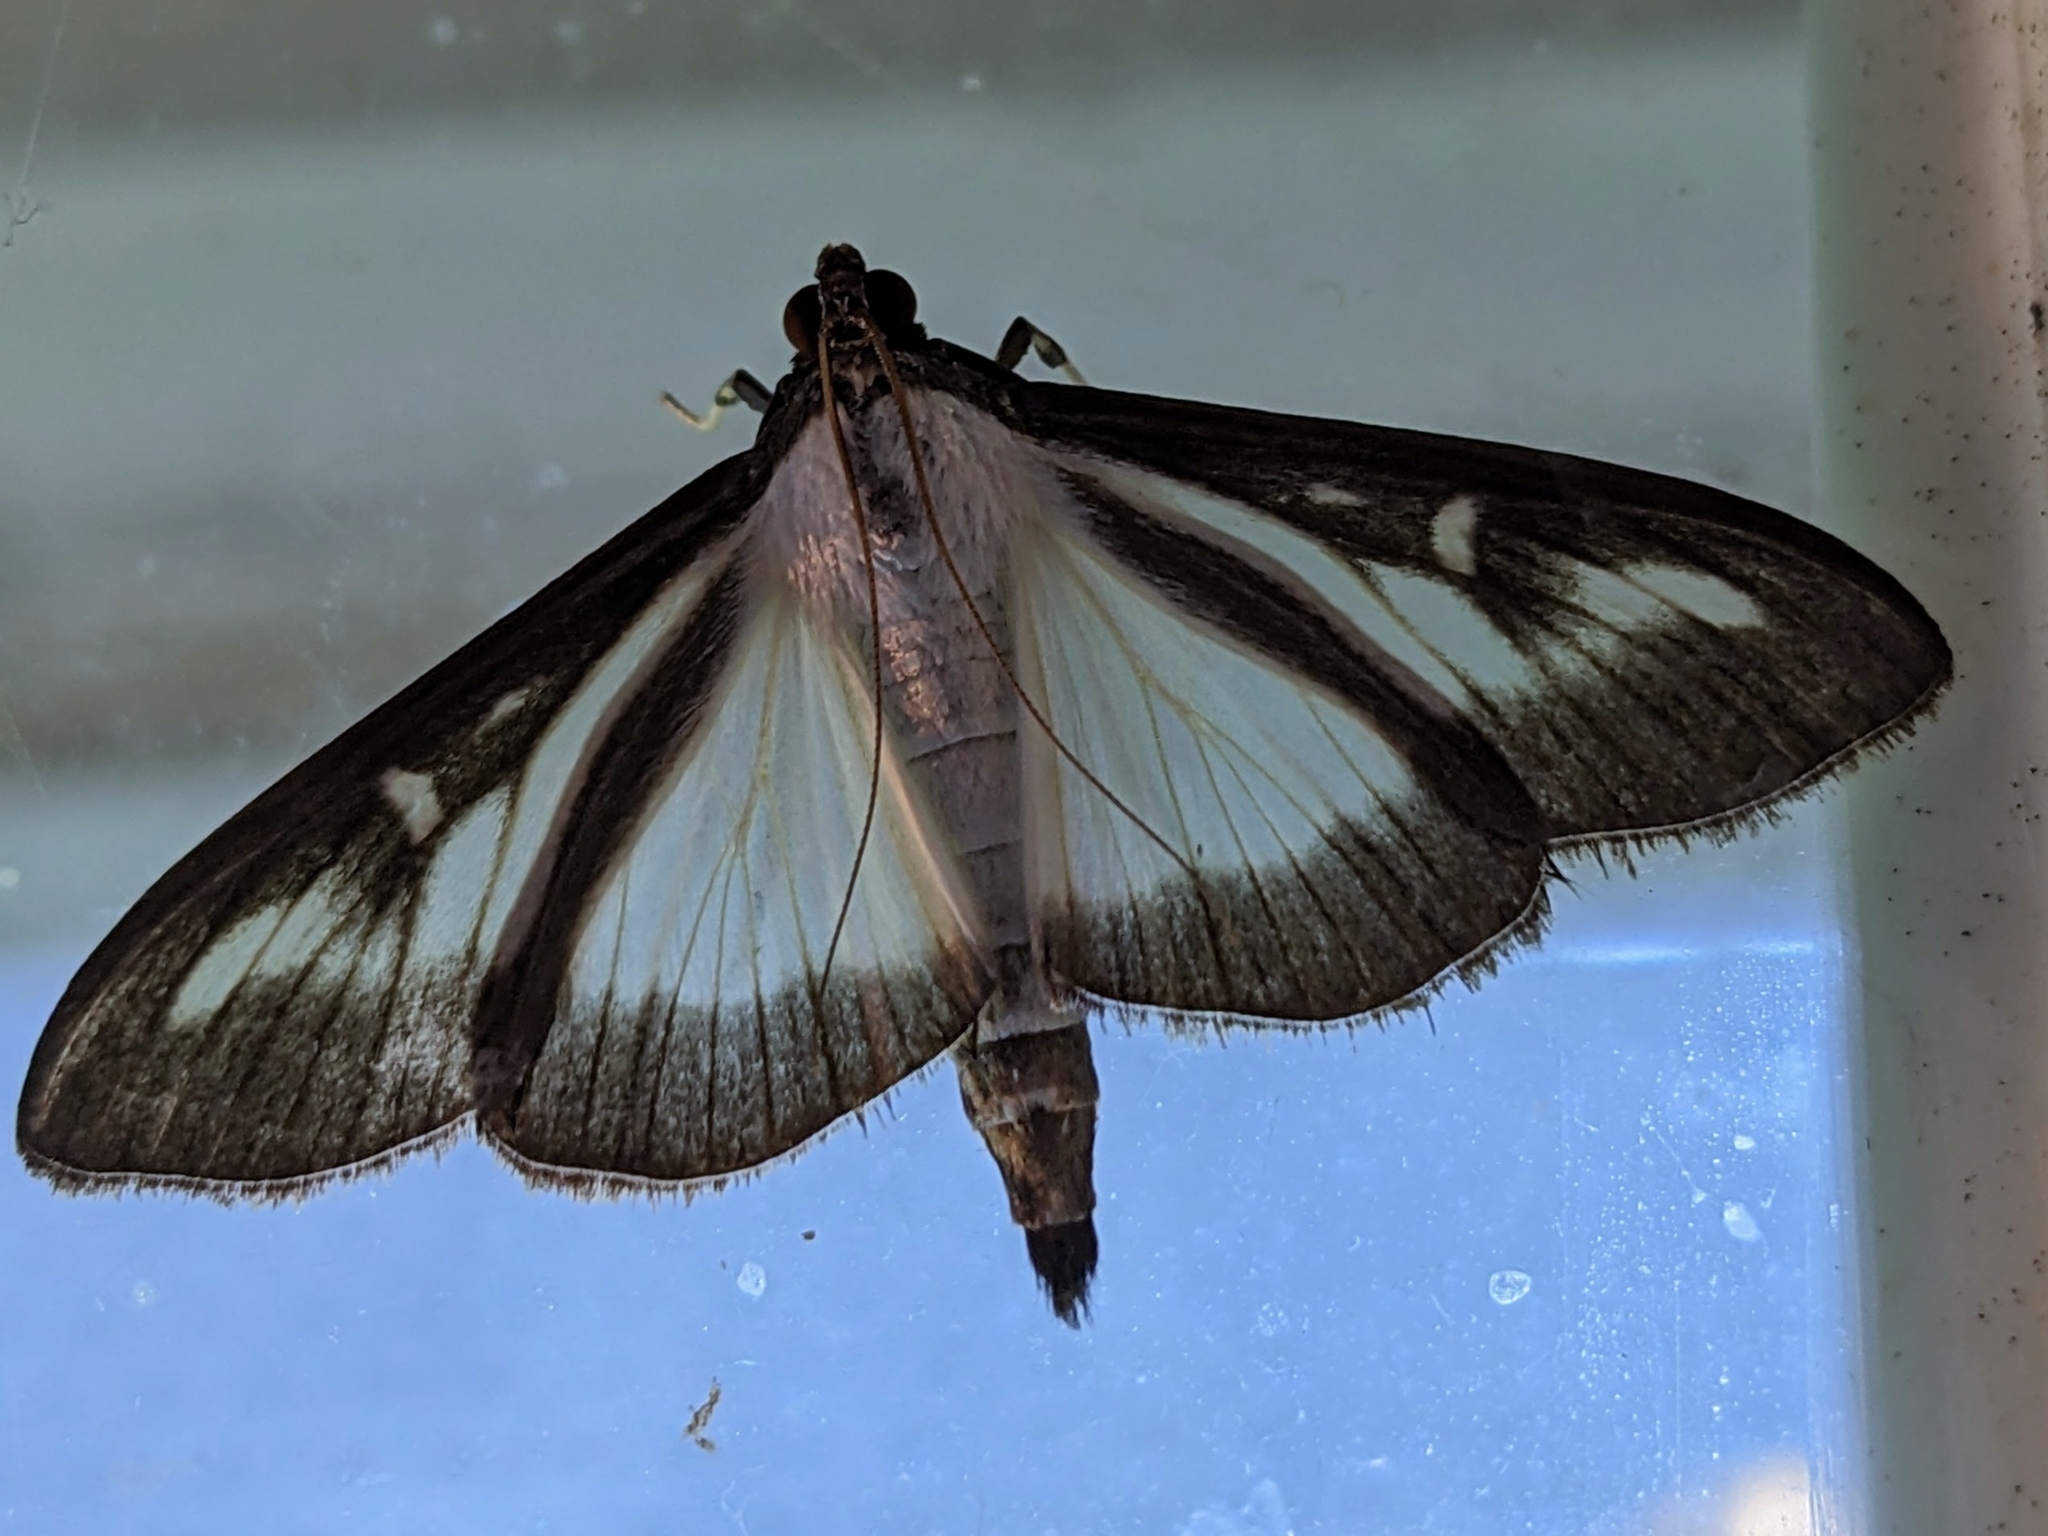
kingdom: Animalia
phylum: Arthropoda
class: Insecta
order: Lepidoptera
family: Crambidae
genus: Cydalima
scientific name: Cydalima perspectalis
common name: Box tree moth
